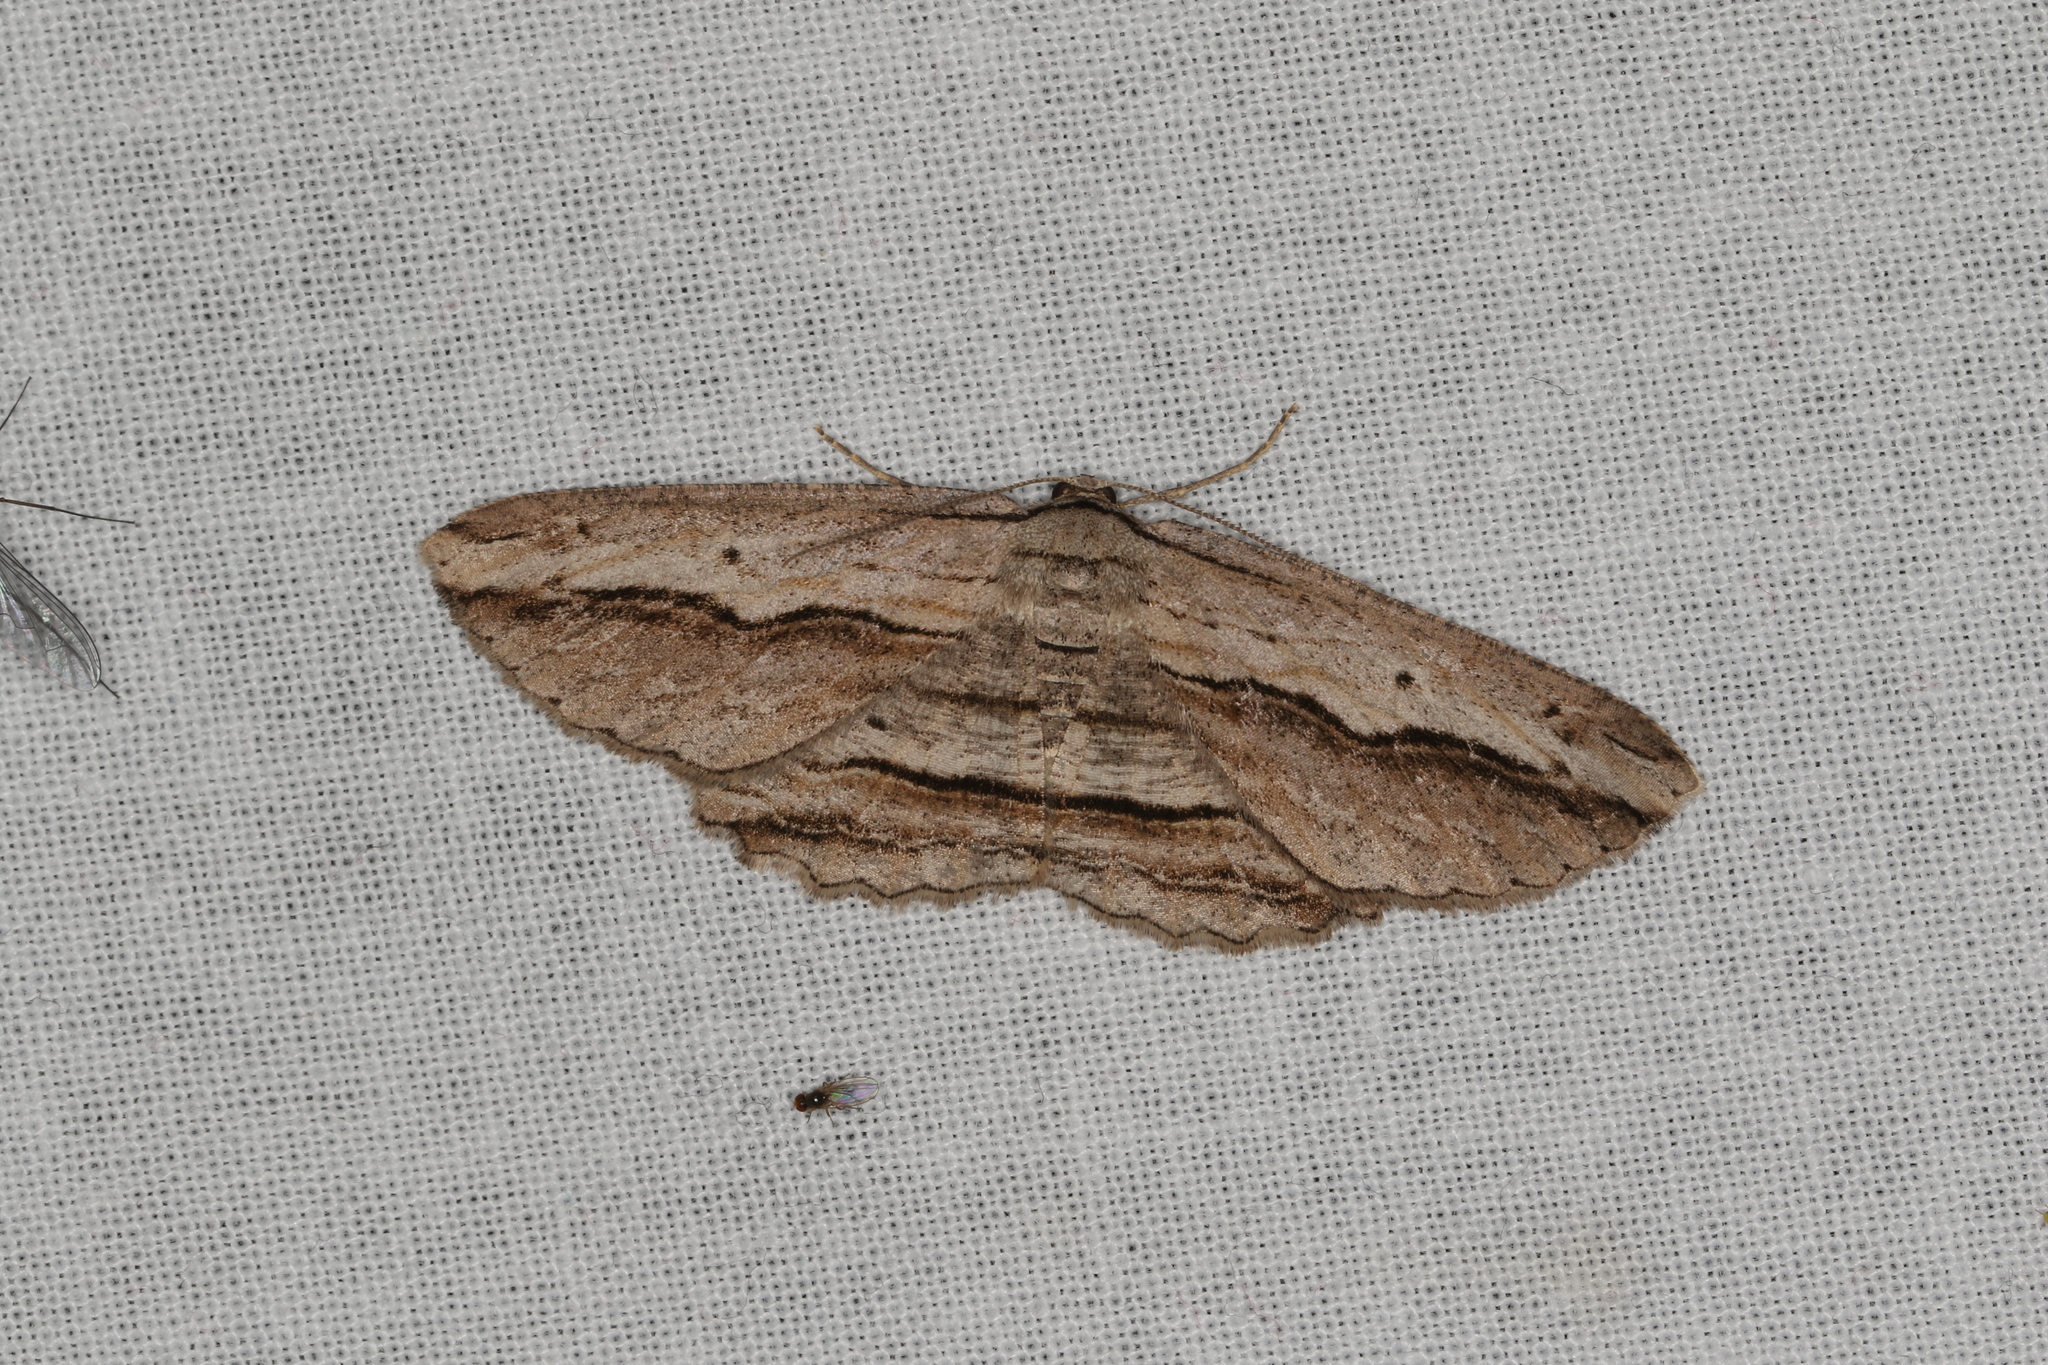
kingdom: Animalia
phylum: Arthropoda
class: Insecta
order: Lepidoptera
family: Geometridae
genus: Euphronarcha
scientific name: Euphronarcha luxaria
